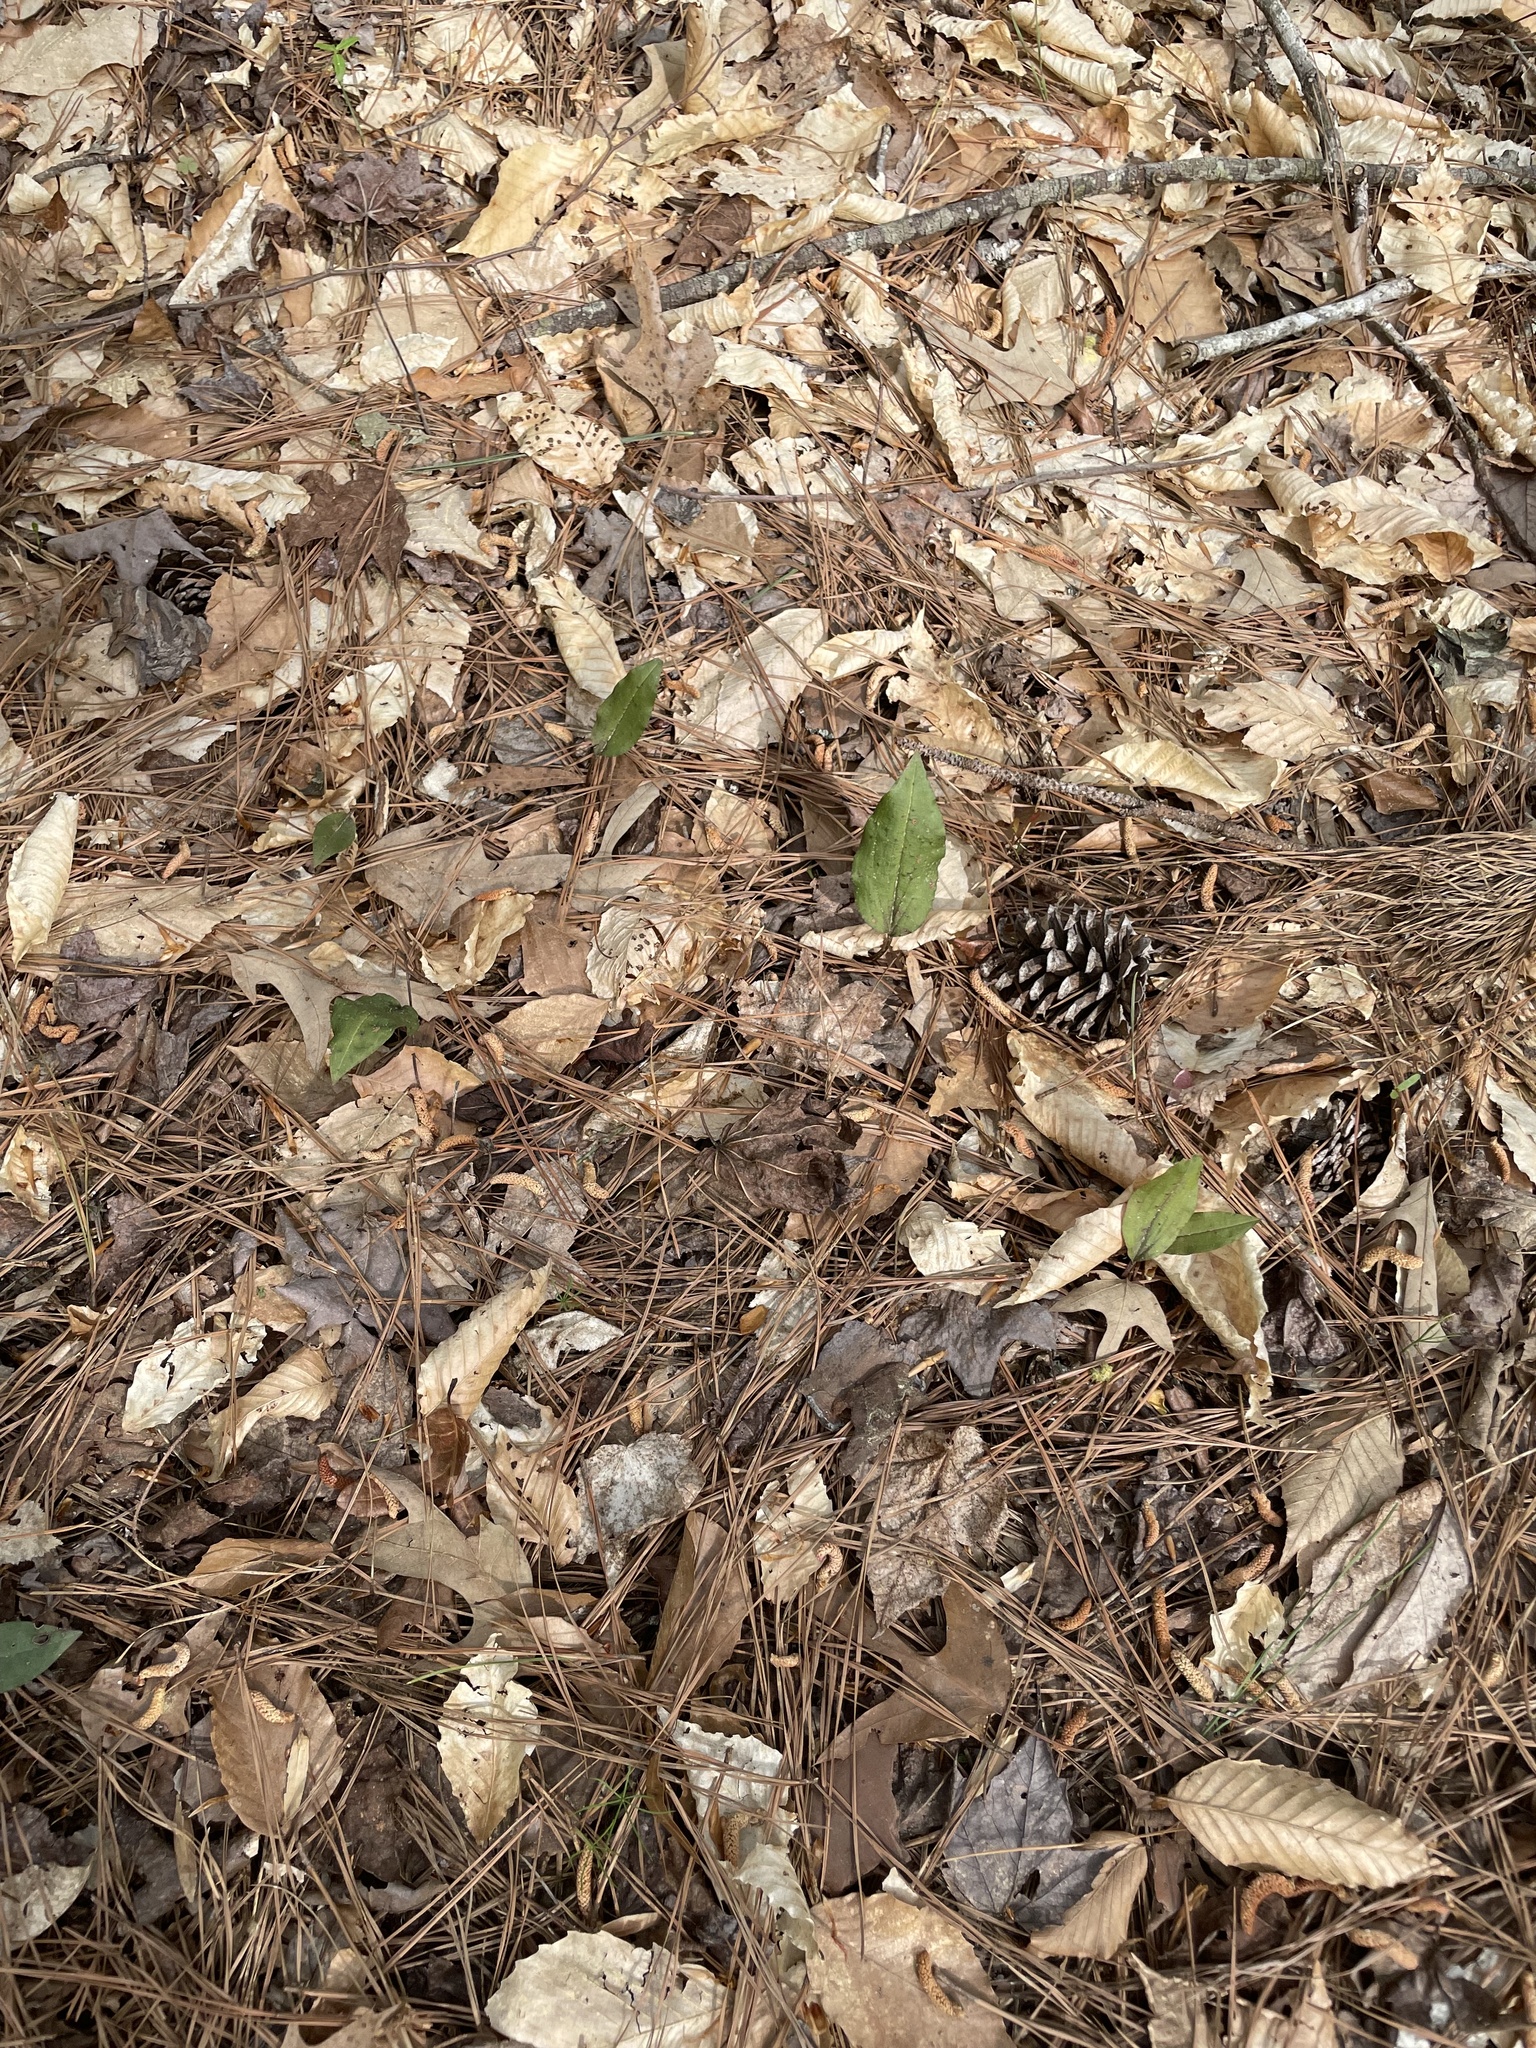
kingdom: Plantae
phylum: Tracheophyta
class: Liliopsida
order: Asparagales
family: Orchidaceae
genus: Tipularia
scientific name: Tipularia discolor
